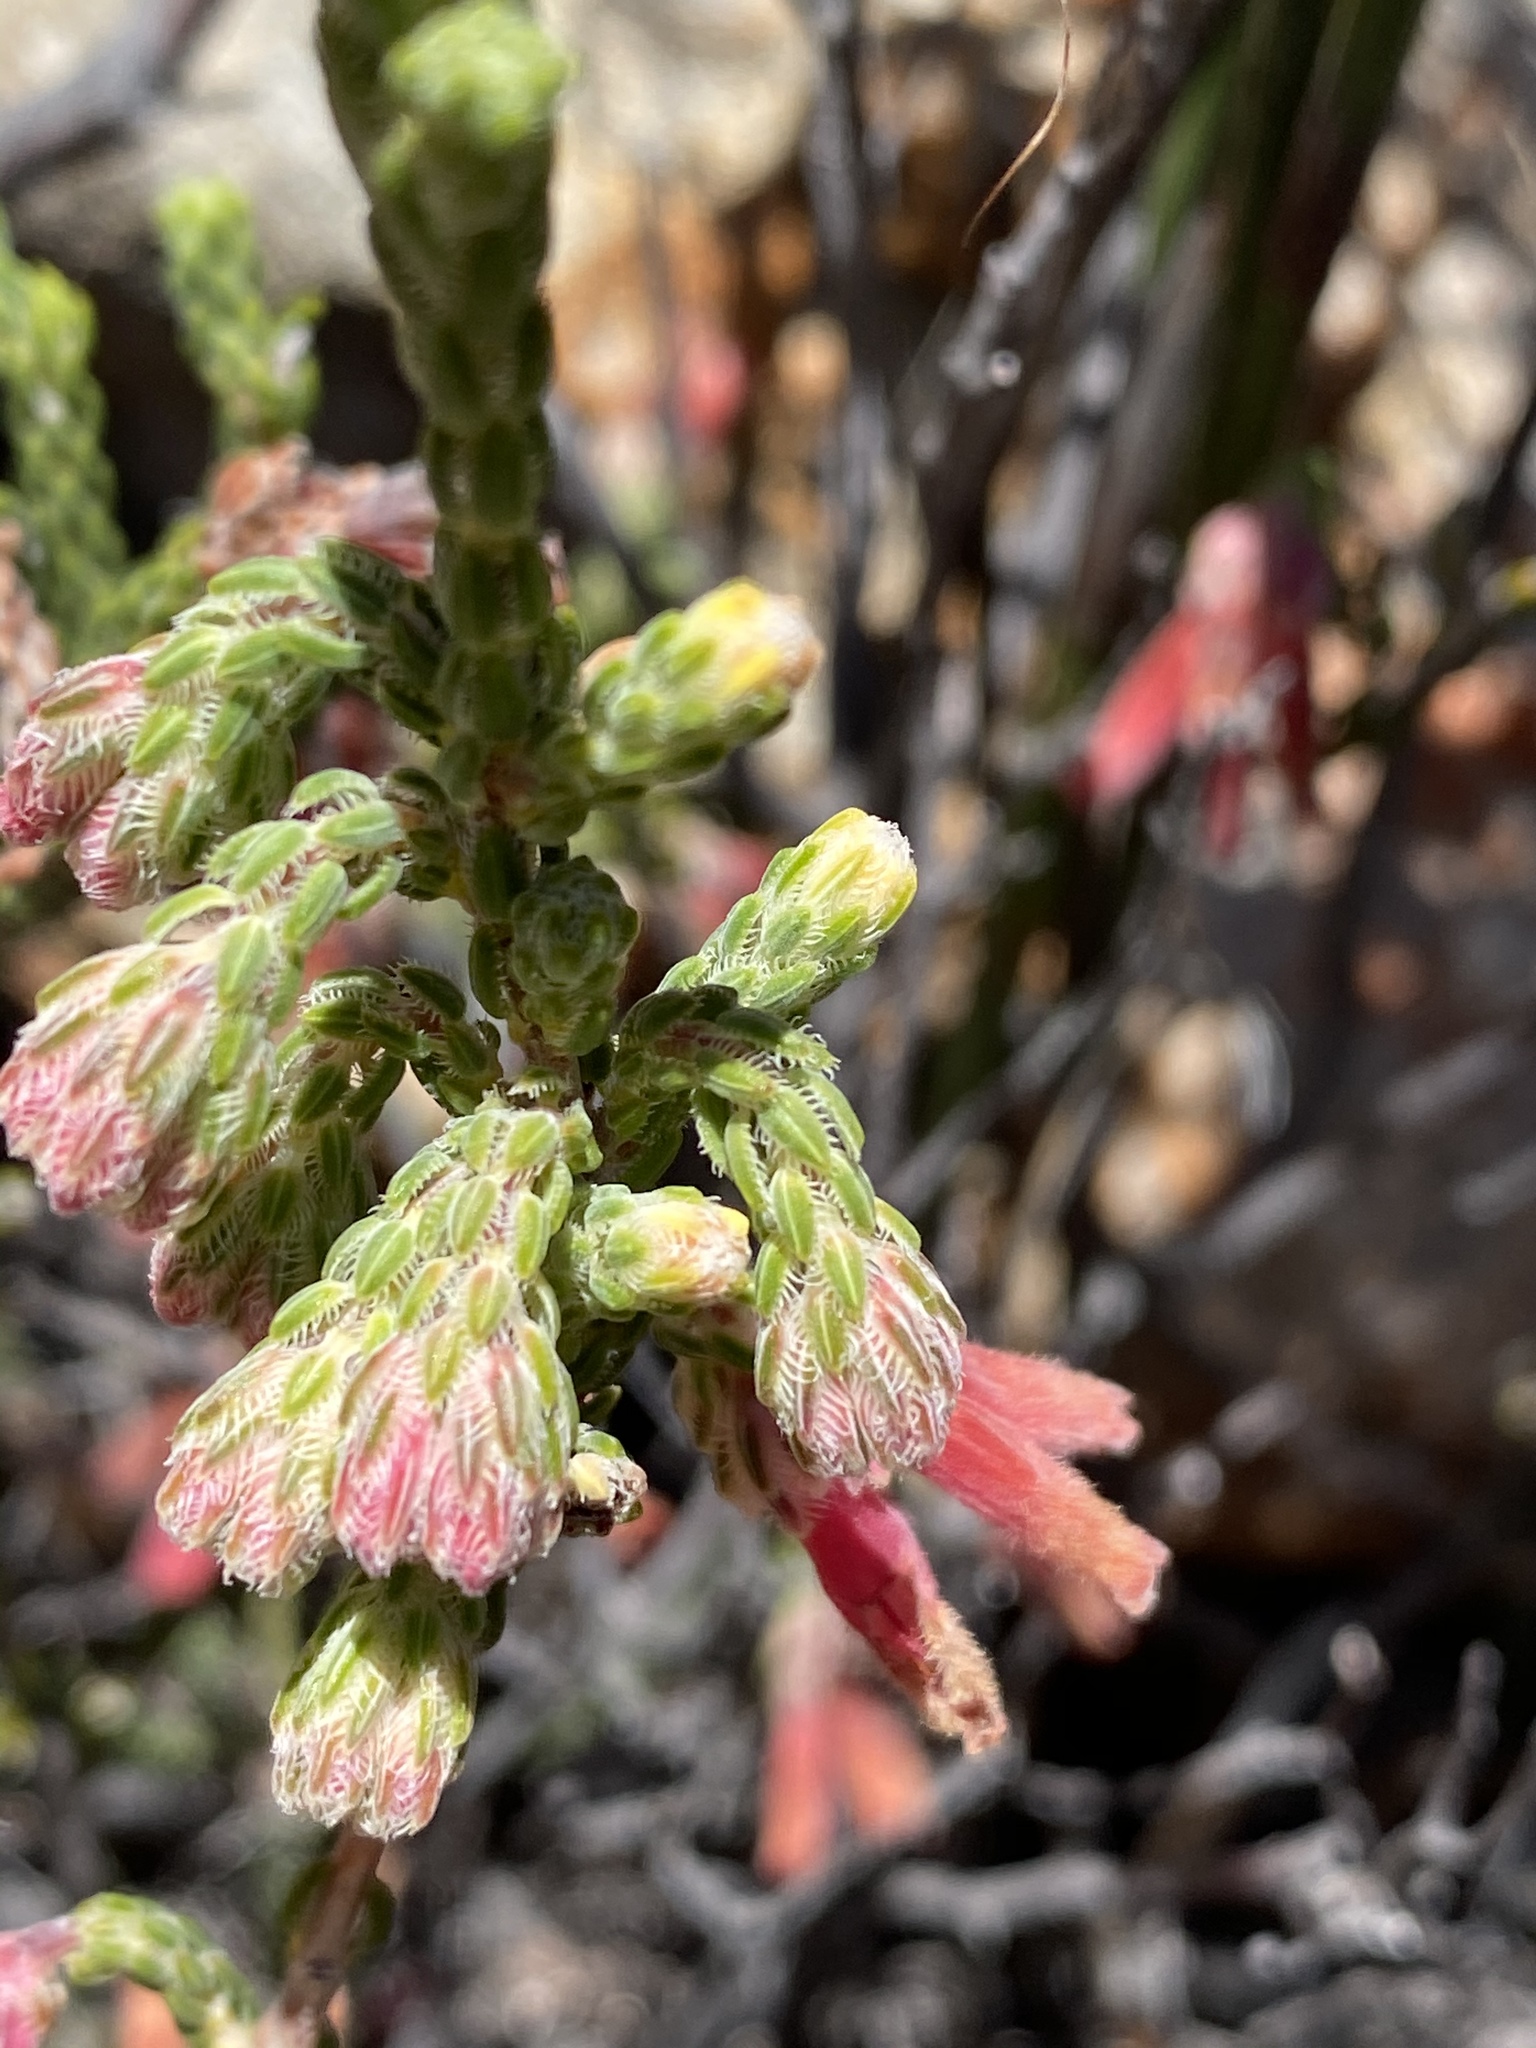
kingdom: Plantae
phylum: Tracheophyta
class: Magnoliopsida
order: Ericales
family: Ericaceae
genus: Erica
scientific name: Erica strigilifolia
